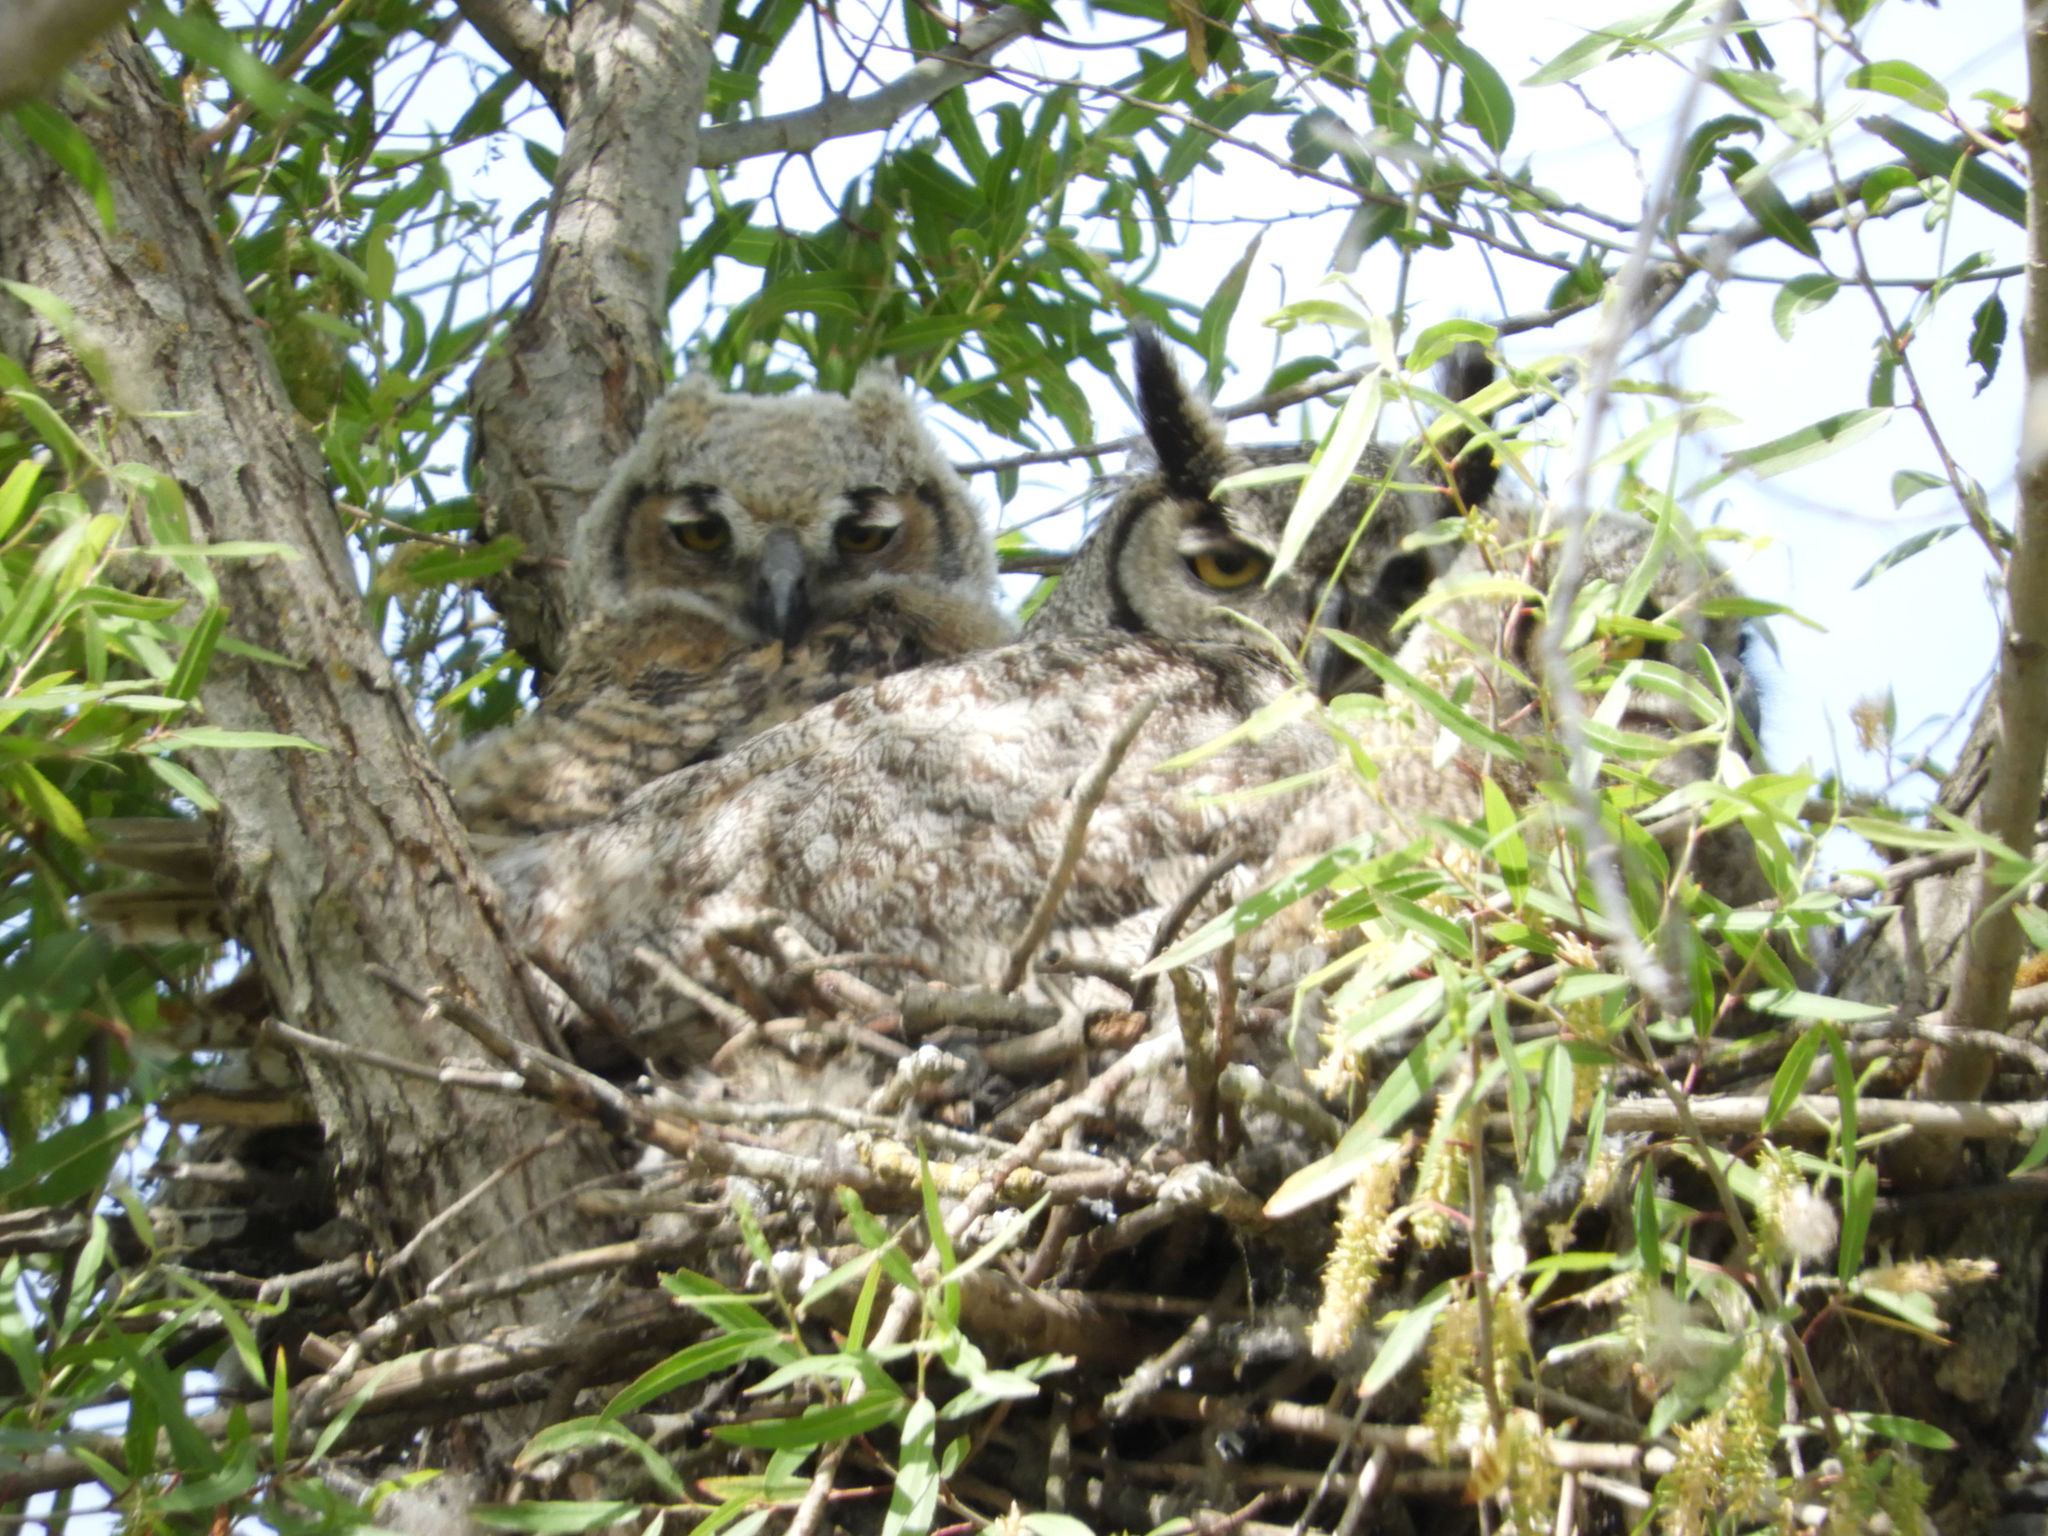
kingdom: Animalia
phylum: Chordata
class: Aves
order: Strigiformes
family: Strigidae
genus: Bubo
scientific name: Bubo virginianus
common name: Great horned owl
